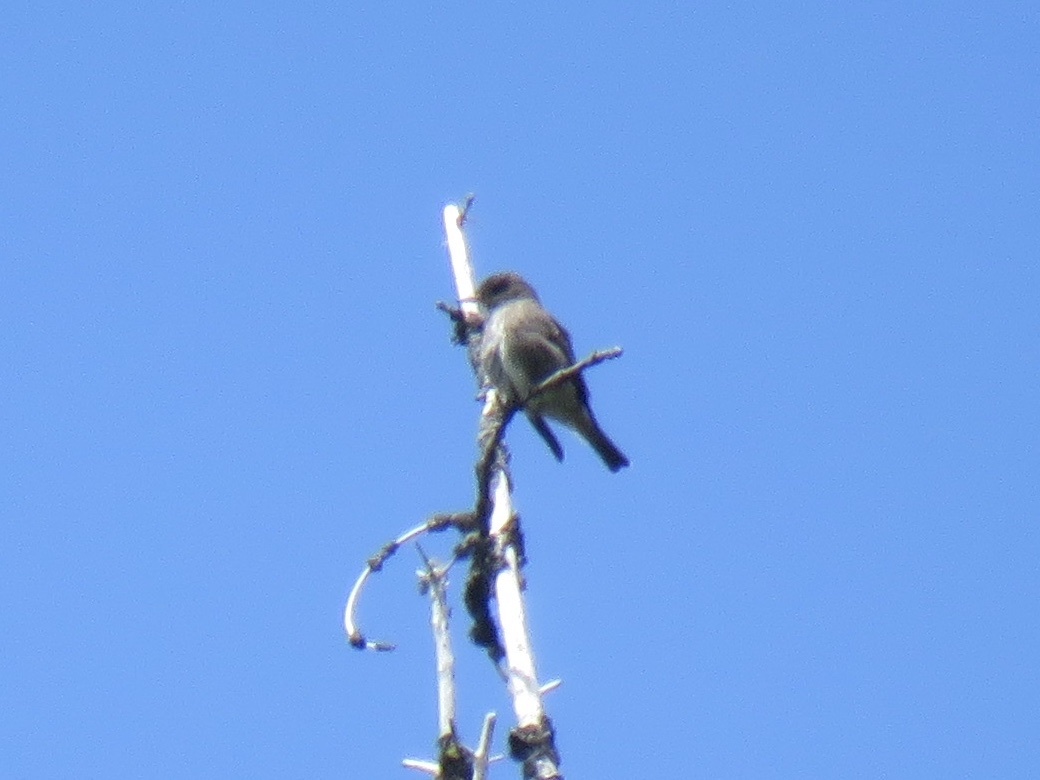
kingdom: Animalia
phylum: Chordata
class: Aves
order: Passeriformes
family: Tyrannidae
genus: Contopus
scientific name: Contopus cooperi
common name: Olive-sided flycatcher
